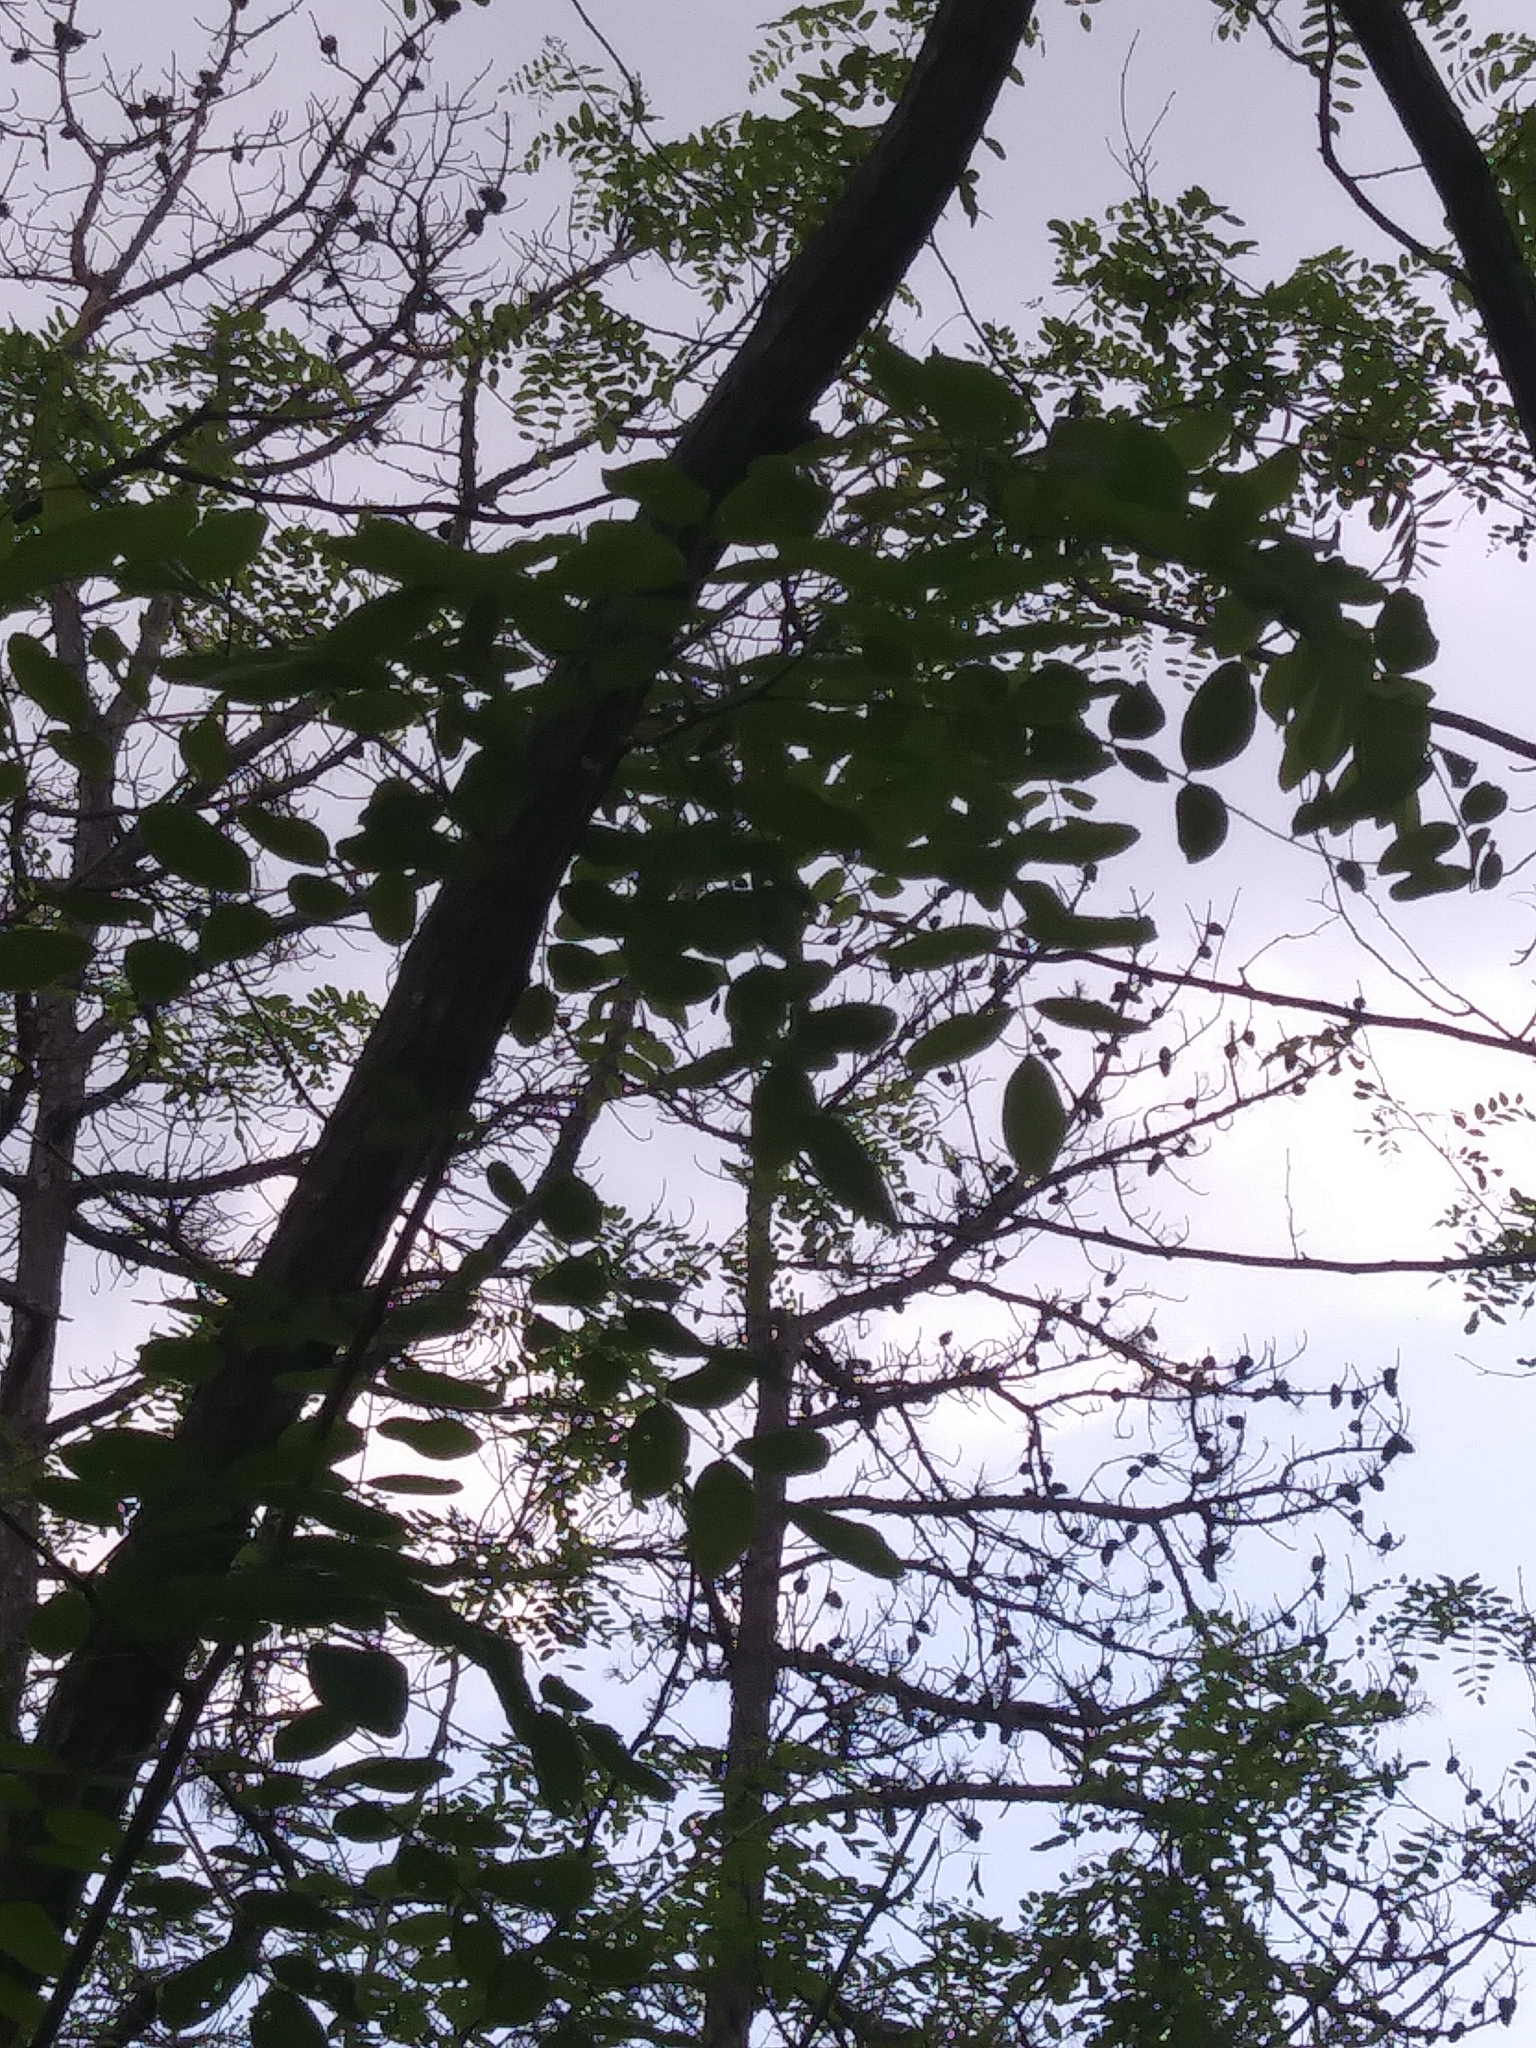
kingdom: Plantae
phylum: Tracheophyta
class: Magnoliopsida
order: Fabales
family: Fabaceae
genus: Robinia
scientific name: Robinia pseudoacacia
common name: Black locust
